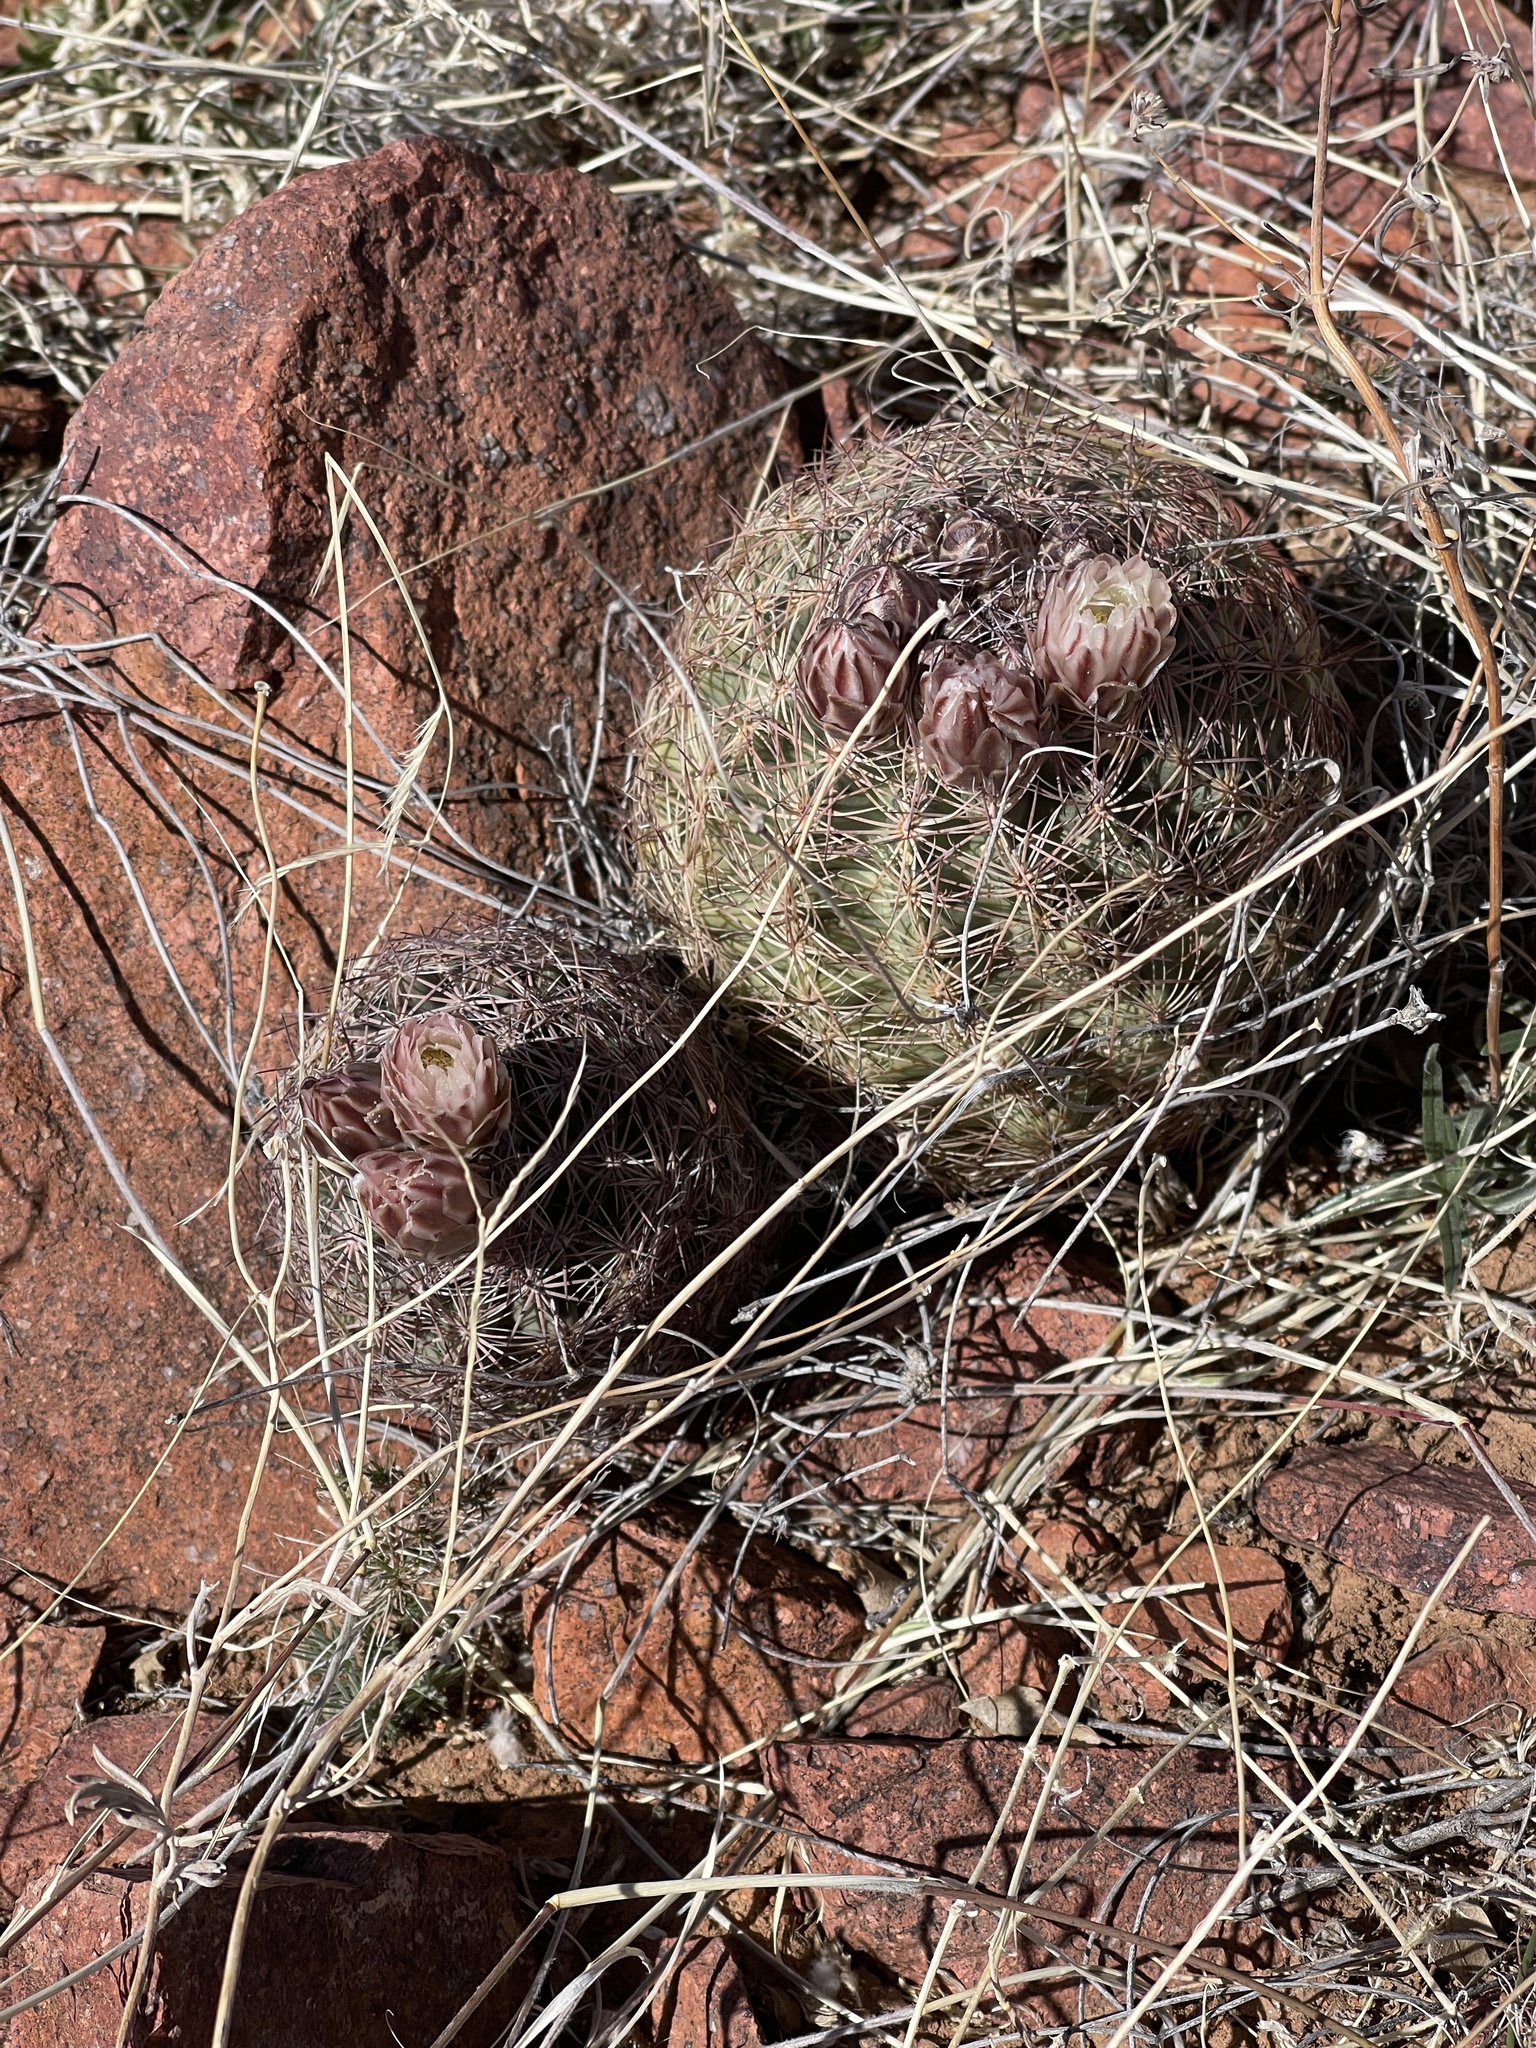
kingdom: Plantae
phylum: Tracheophyta
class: Magnoliopsida
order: Caryophyllales
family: Cactaceae
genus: Sclerocactus
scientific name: Sclerocactus intertextus
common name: White fish-hook cactus
